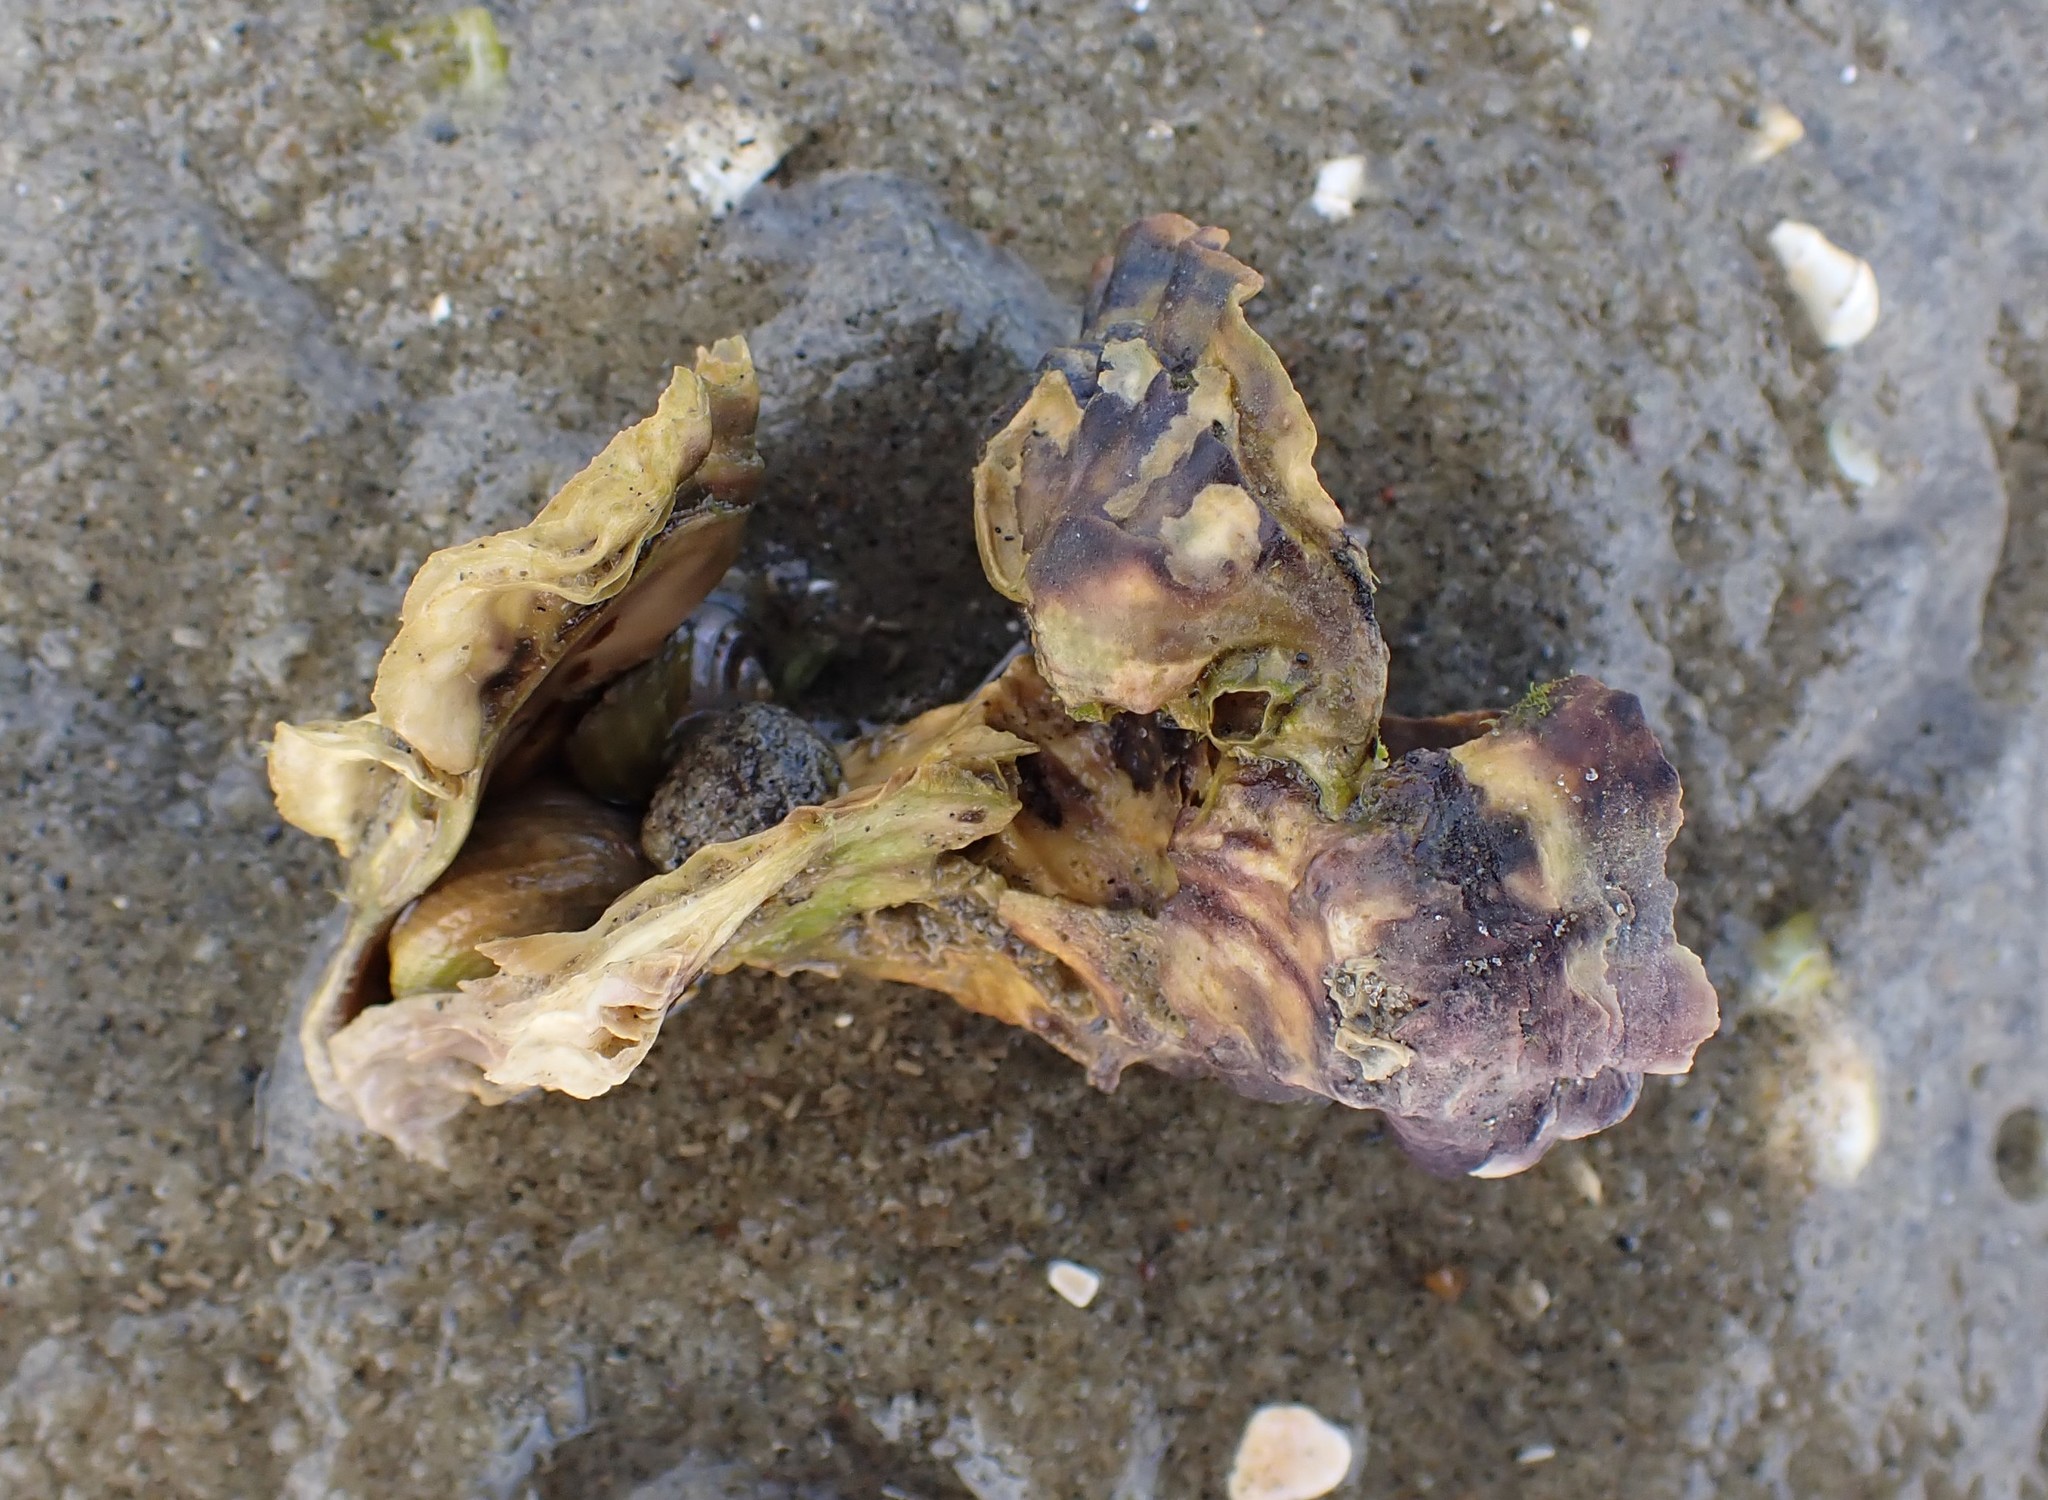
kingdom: Animalia
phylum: Mollusca
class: Bivalvia
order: Ostreida
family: Ostreidae
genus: Magallana
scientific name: Magallana gigas
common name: Pacific oyster
